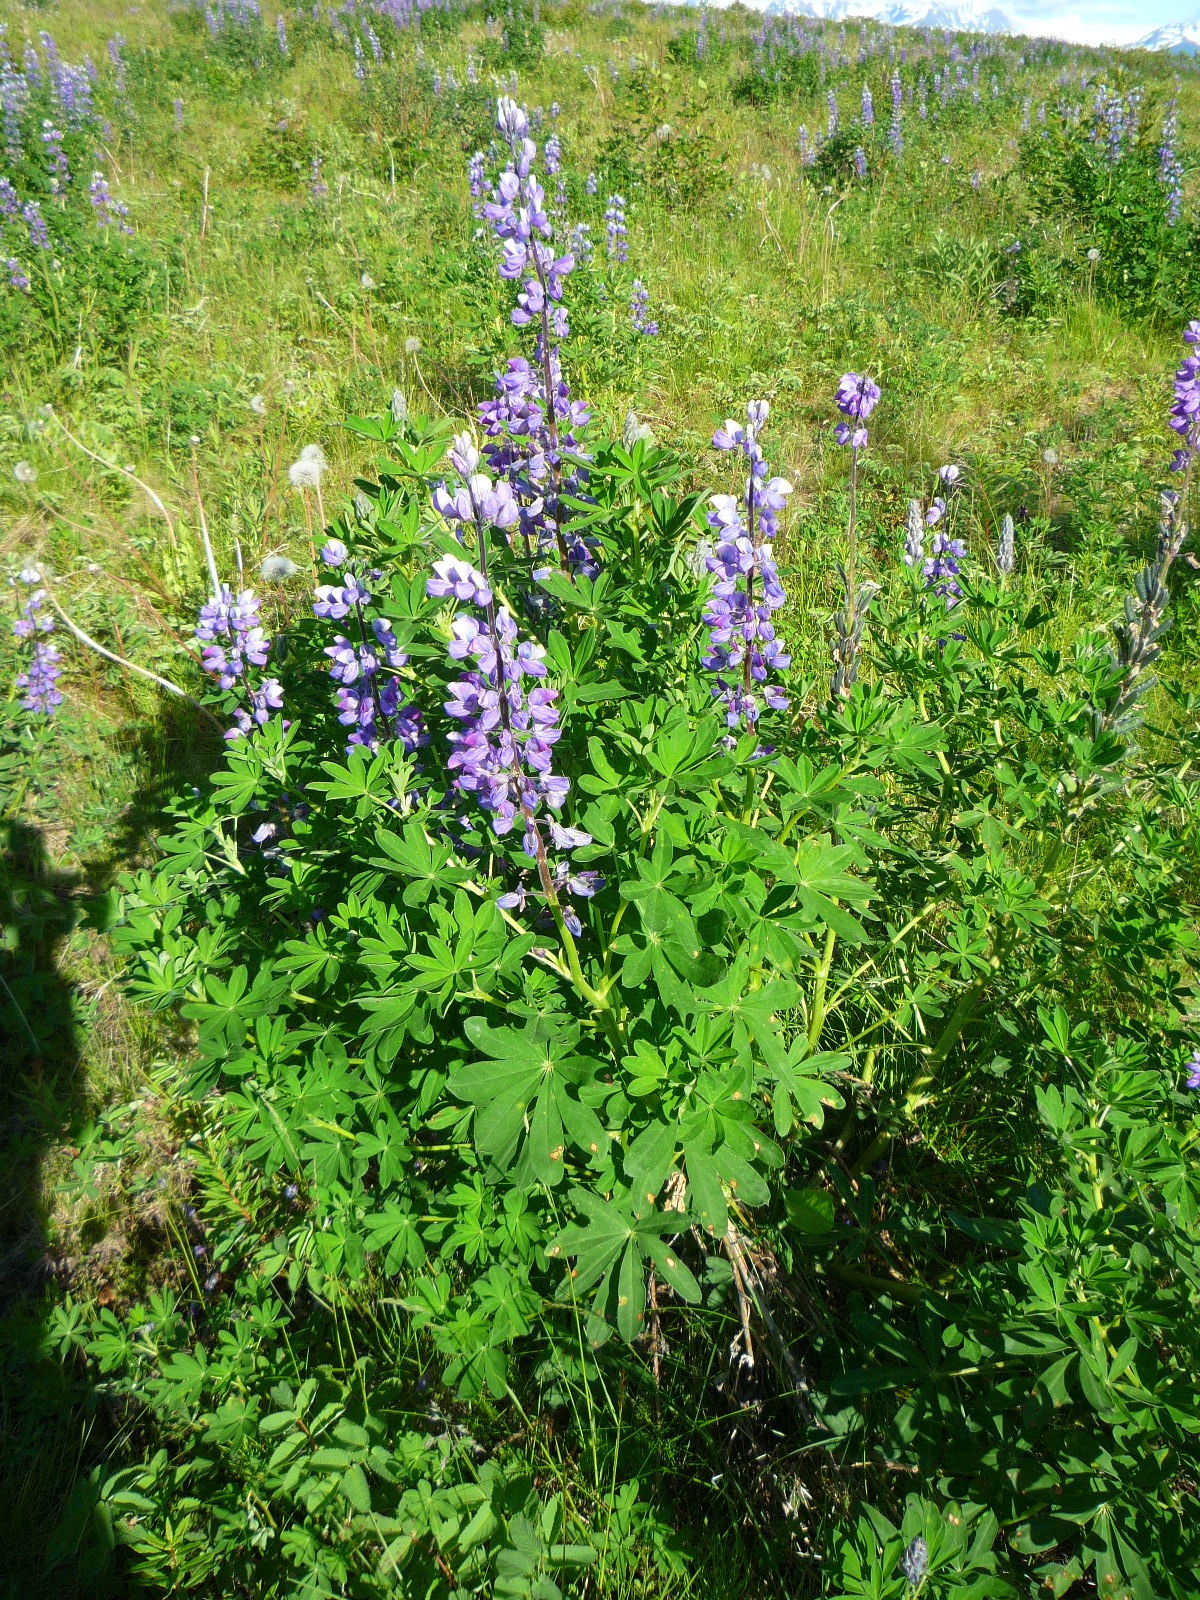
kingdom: Plantae
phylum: Tracheophyta
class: Magnoliopsida
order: Fabales
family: Fabaceae
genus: Lupinus
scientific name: Lupinus nootkatensis
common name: Nootka lupine
